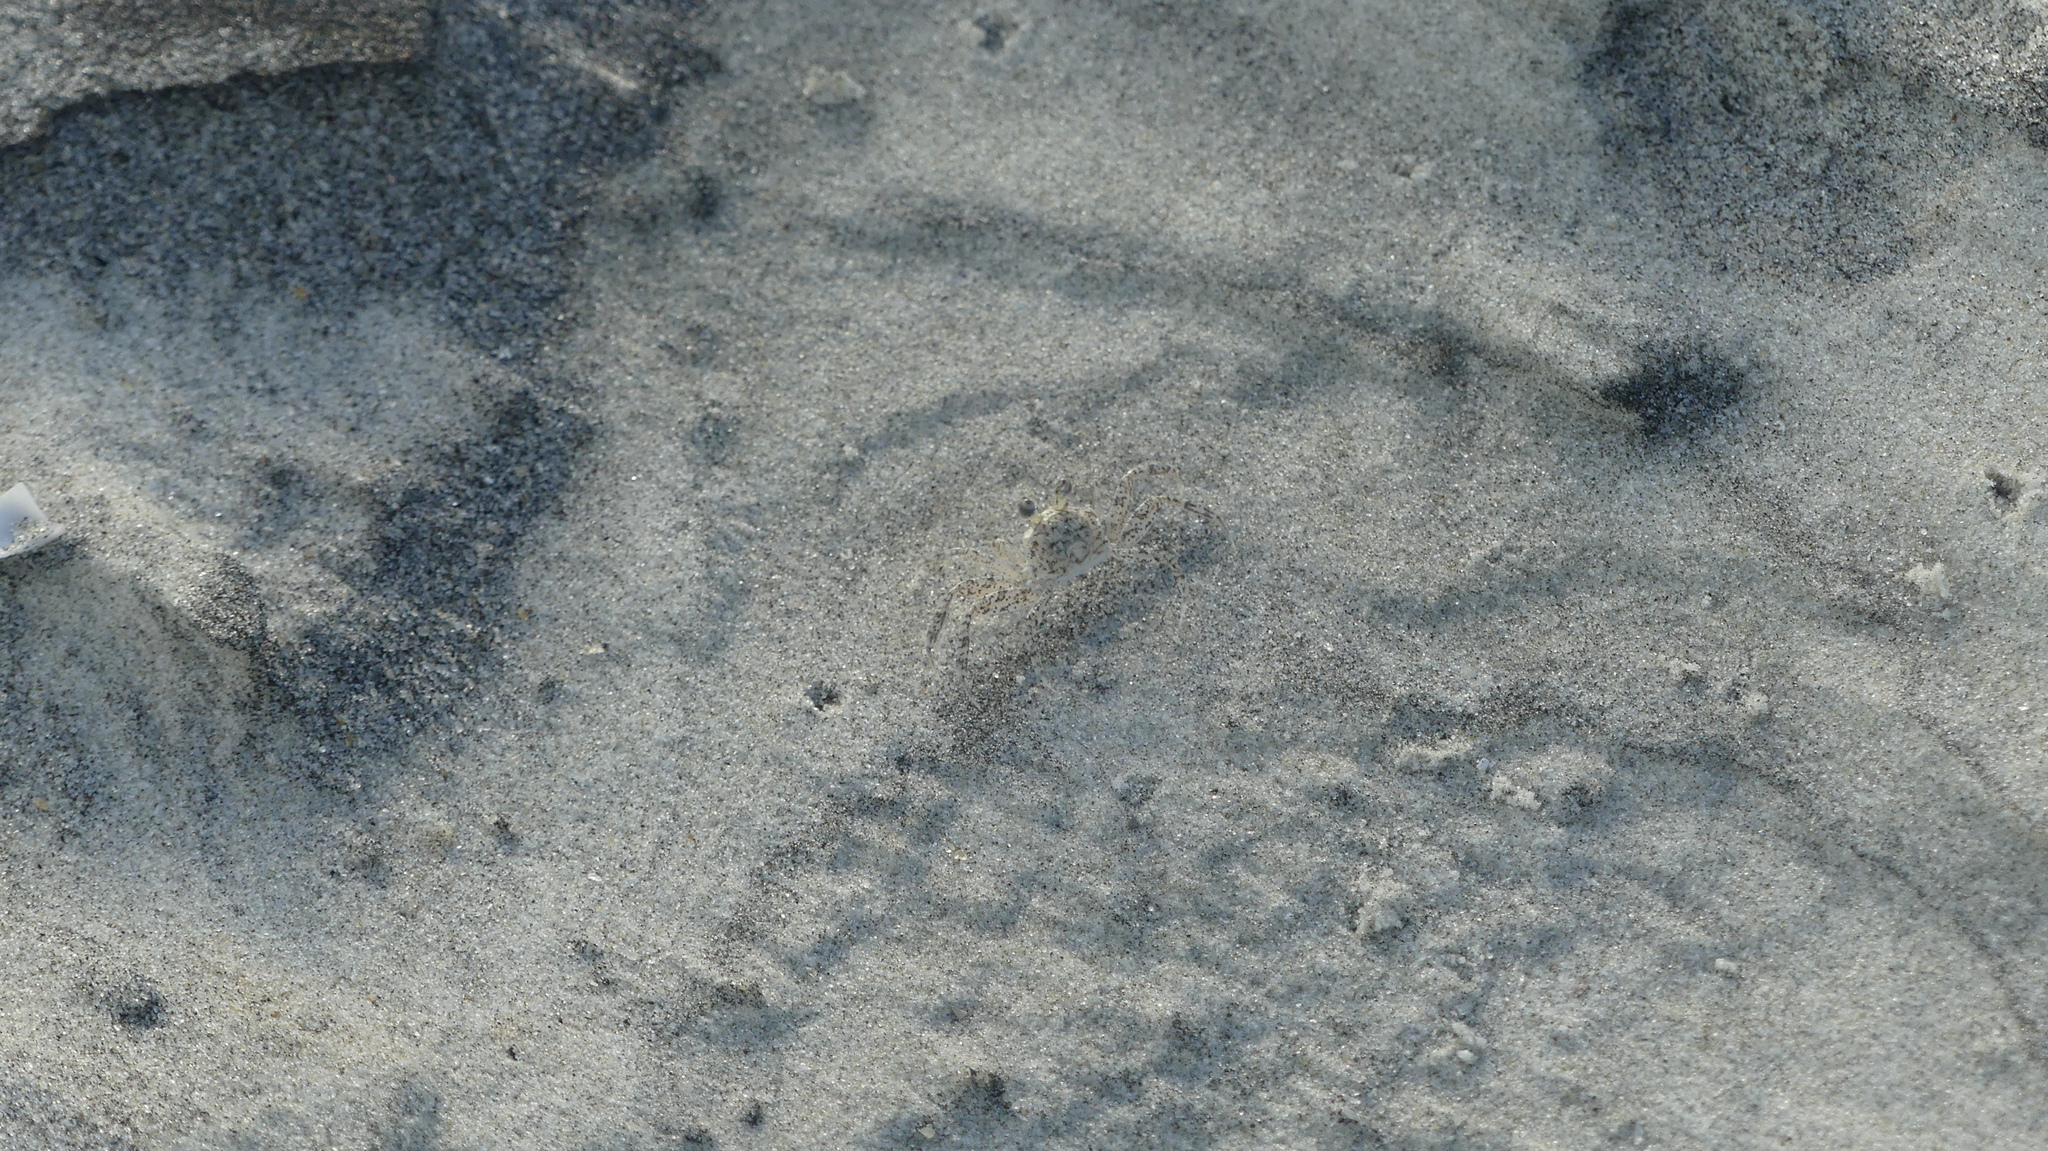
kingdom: Animalia
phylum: Arthropoda
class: Malacostraca
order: Decapoda
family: Ocypodidae
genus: Ocypode
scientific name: Ocypode quadrata
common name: Ghost crab
